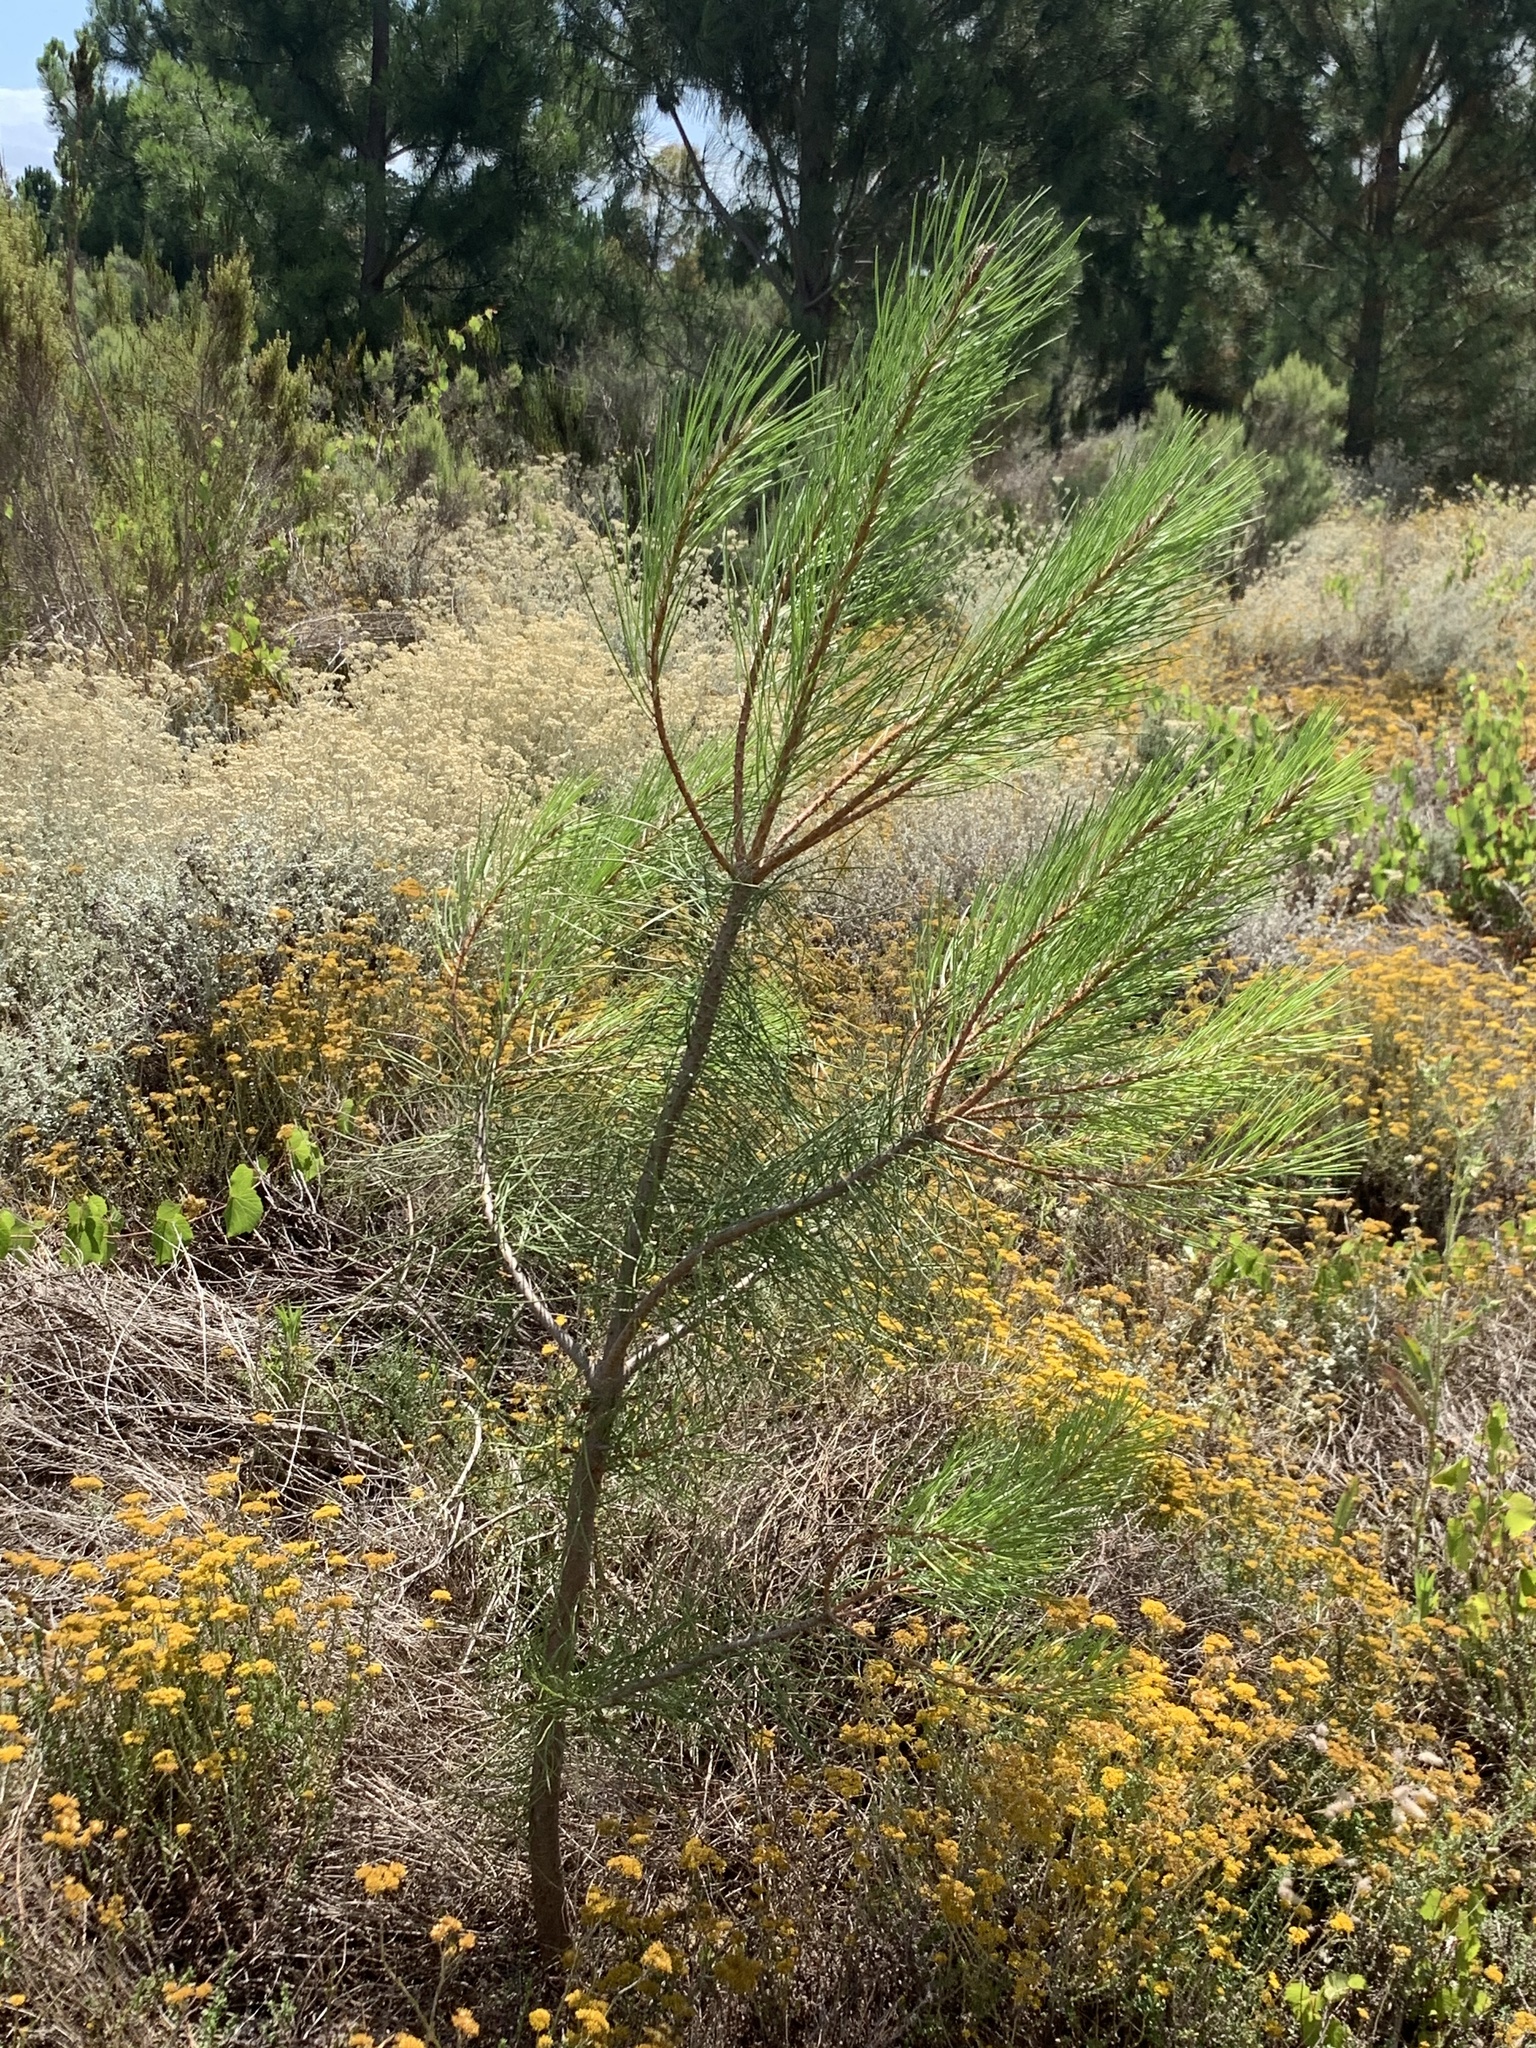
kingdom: Plantae
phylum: Tracheophyta
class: Pinopsida
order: Pinales
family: Pinaceae
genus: Pinus
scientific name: Pinus pinaster
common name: Maritime pine
